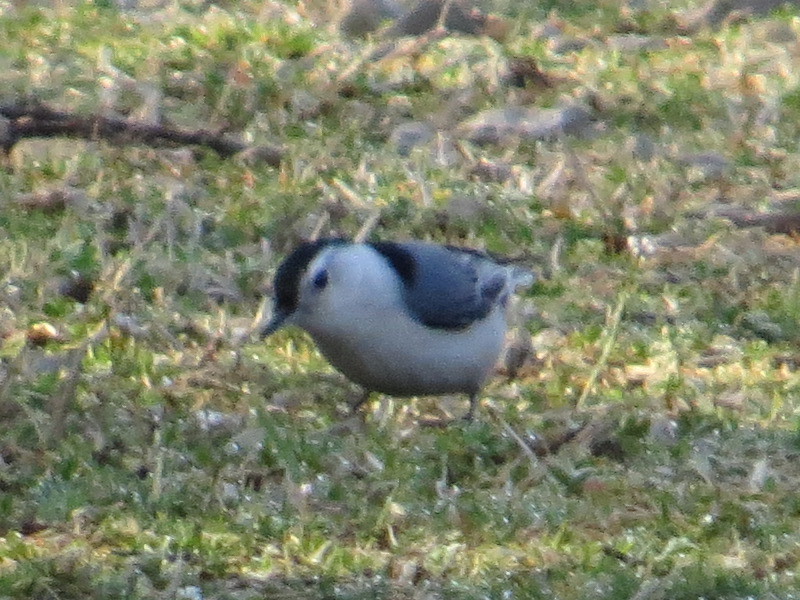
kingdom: Animalia
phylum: Chordata
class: Aves
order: Passeriformes
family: Sittidae
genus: Sitta
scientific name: Sitta carolinensis
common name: White-breasted nuthatch
